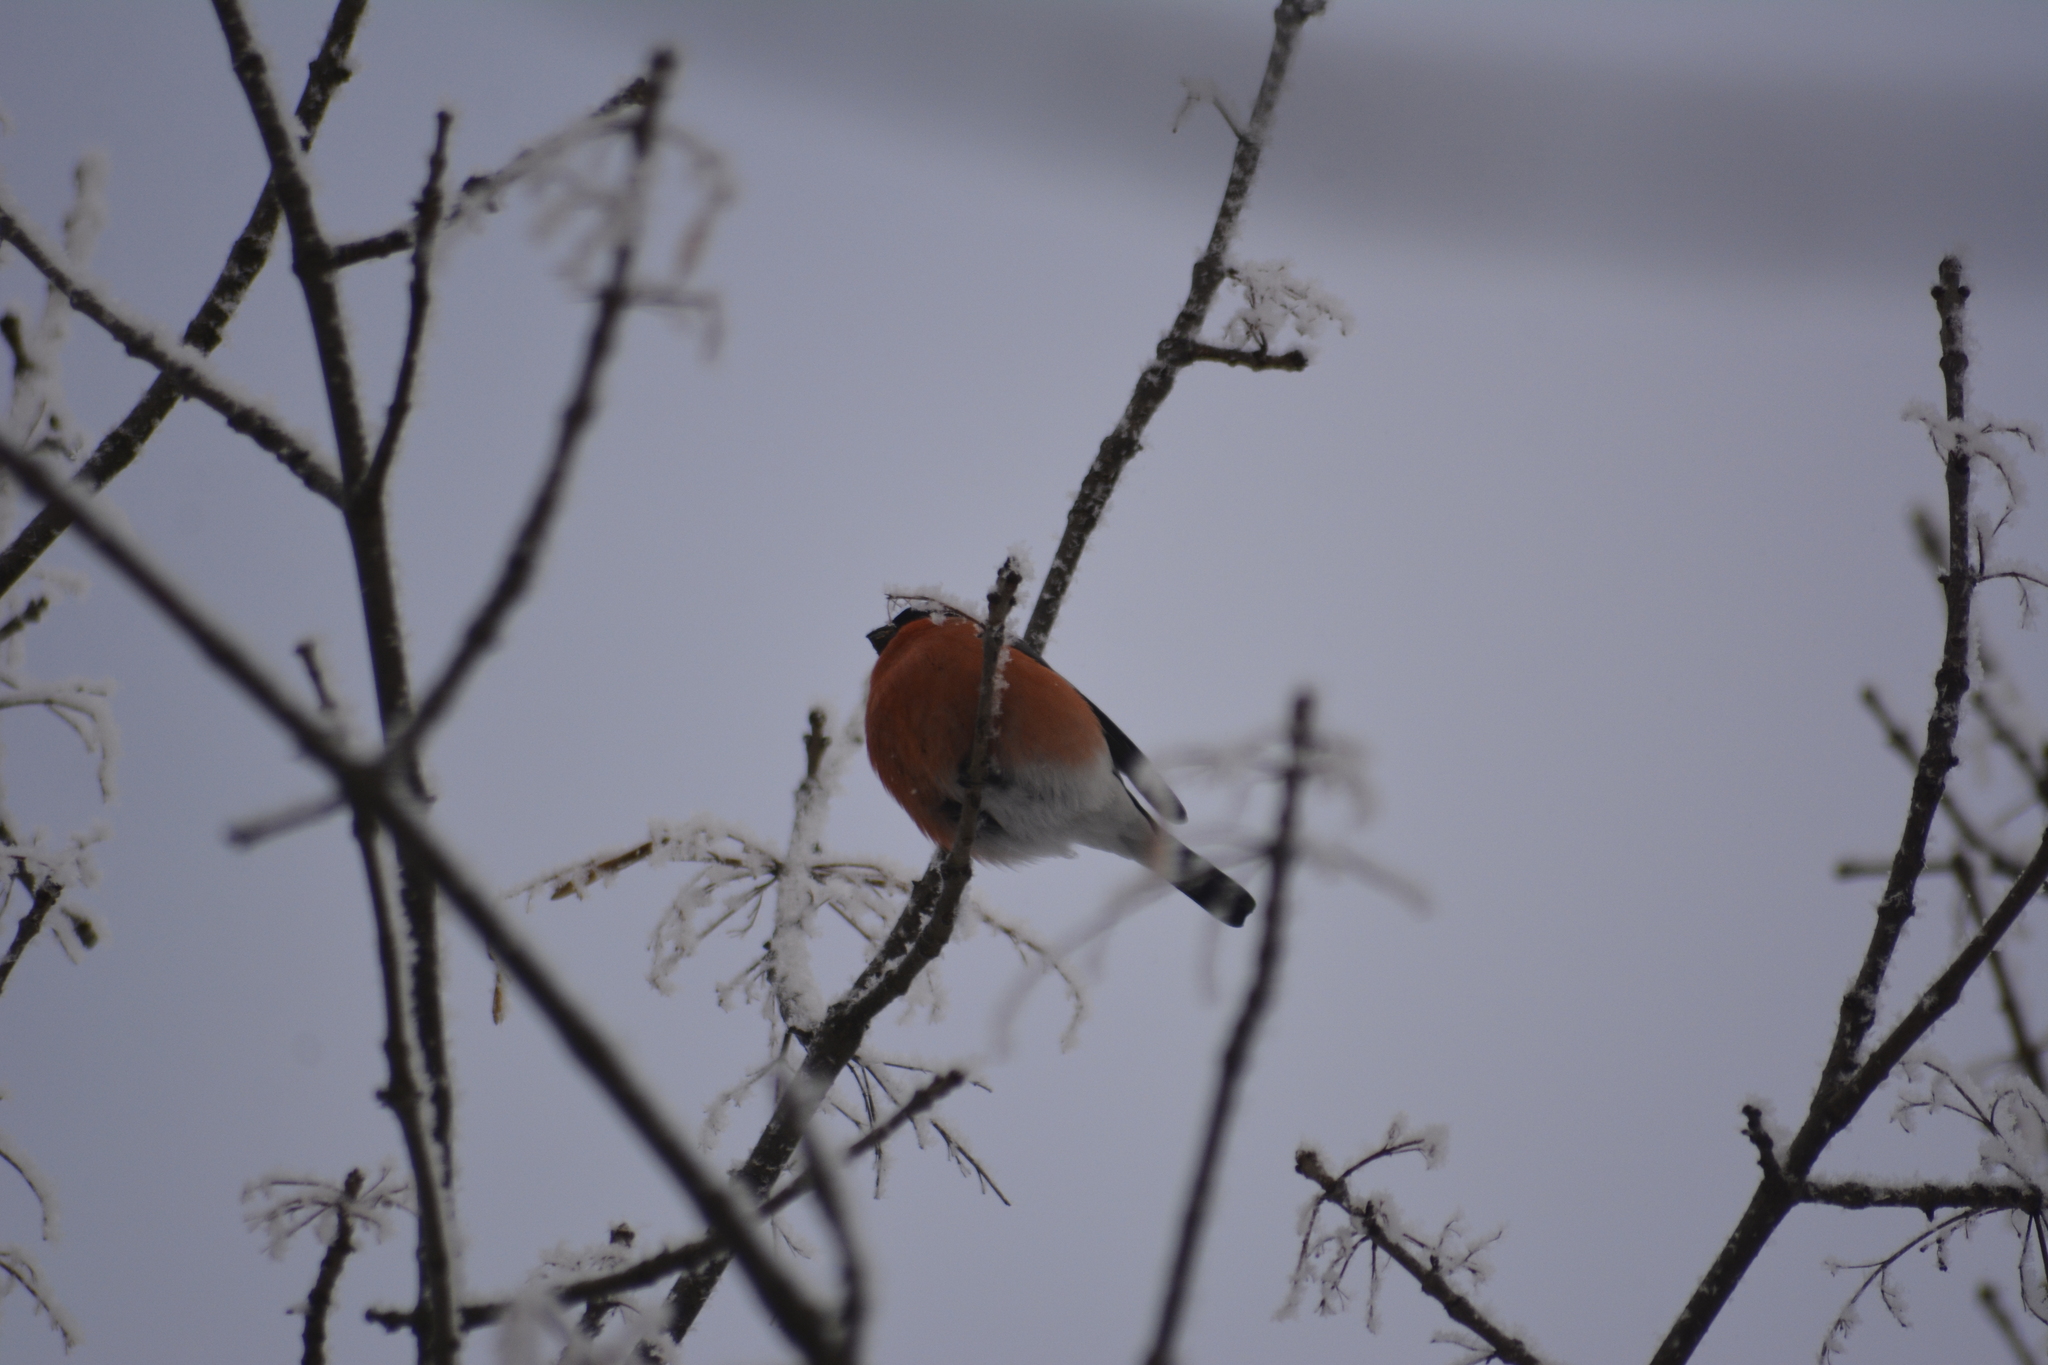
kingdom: Animalia
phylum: Chordata
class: Aves
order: Passeriformes
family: Fringillidae
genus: Pyrrhula
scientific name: Pyrrhula pyrrhula
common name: Eurasian bullfinch
